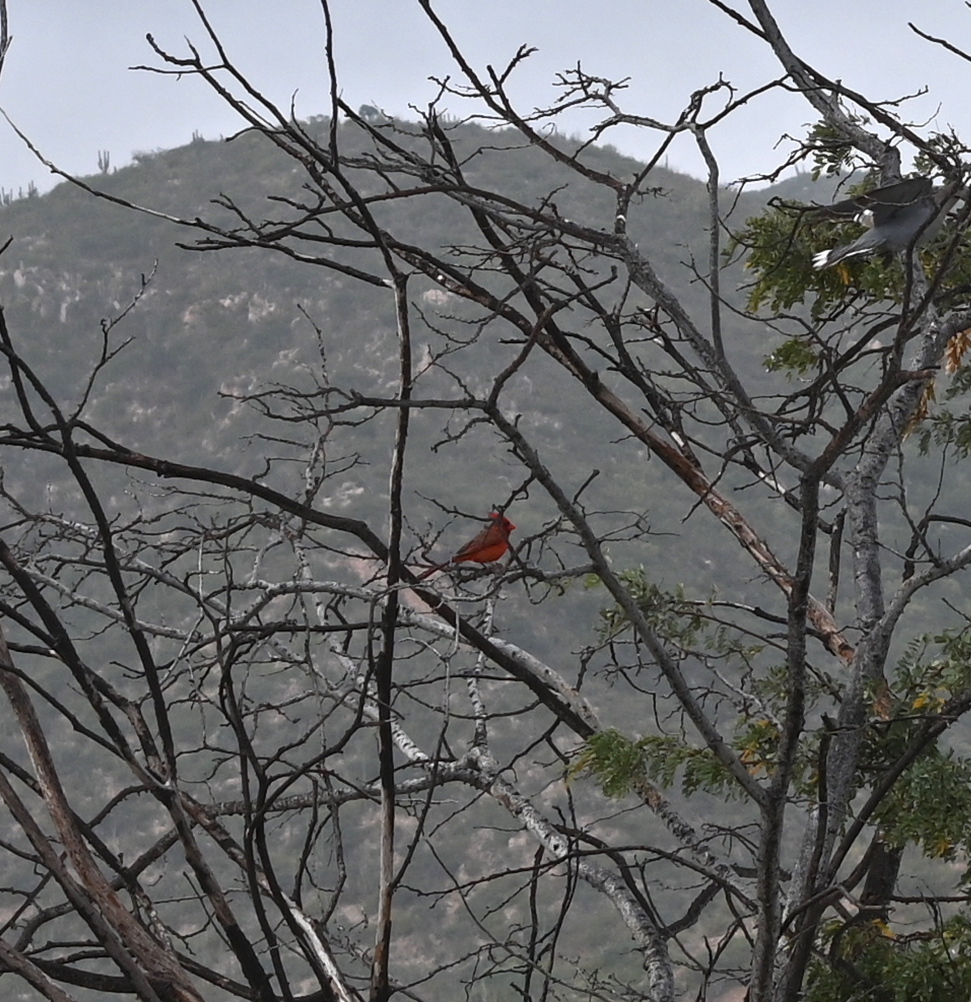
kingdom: Animalia
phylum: Chordata
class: Aves
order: Passeriformes
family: Cardinalidae
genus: Cardinalis
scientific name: Cardinalis cardinalis
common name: Northern cardinal
